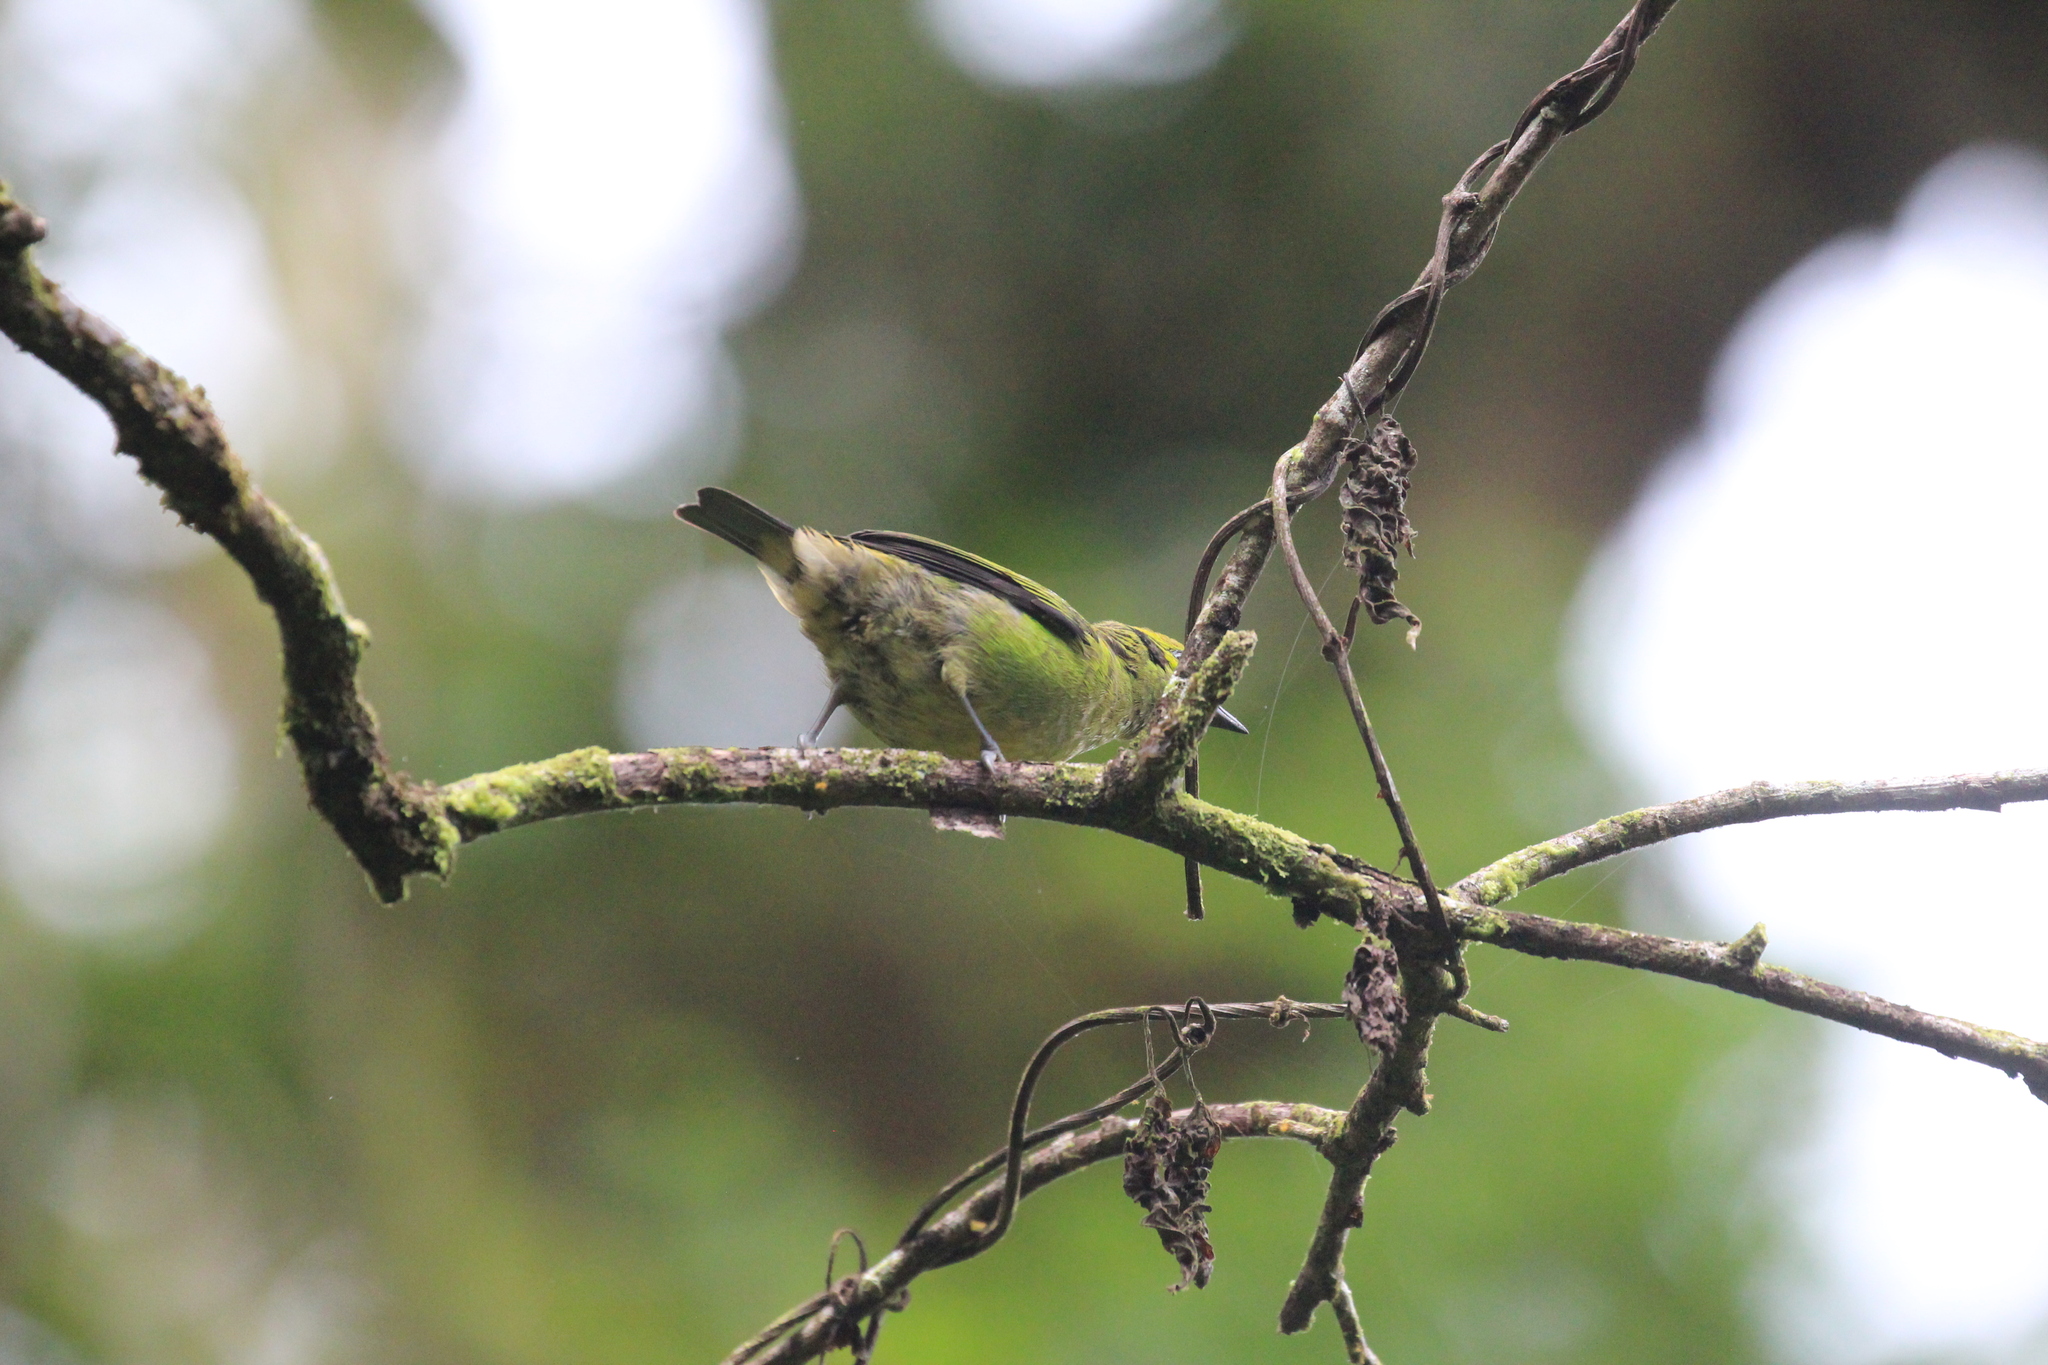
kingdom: Animalia
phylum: Chordata
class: Aves
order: Passeriformes
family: Thraupidae
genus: Tangara
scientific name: Tangara florida
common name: Emerald tanager
